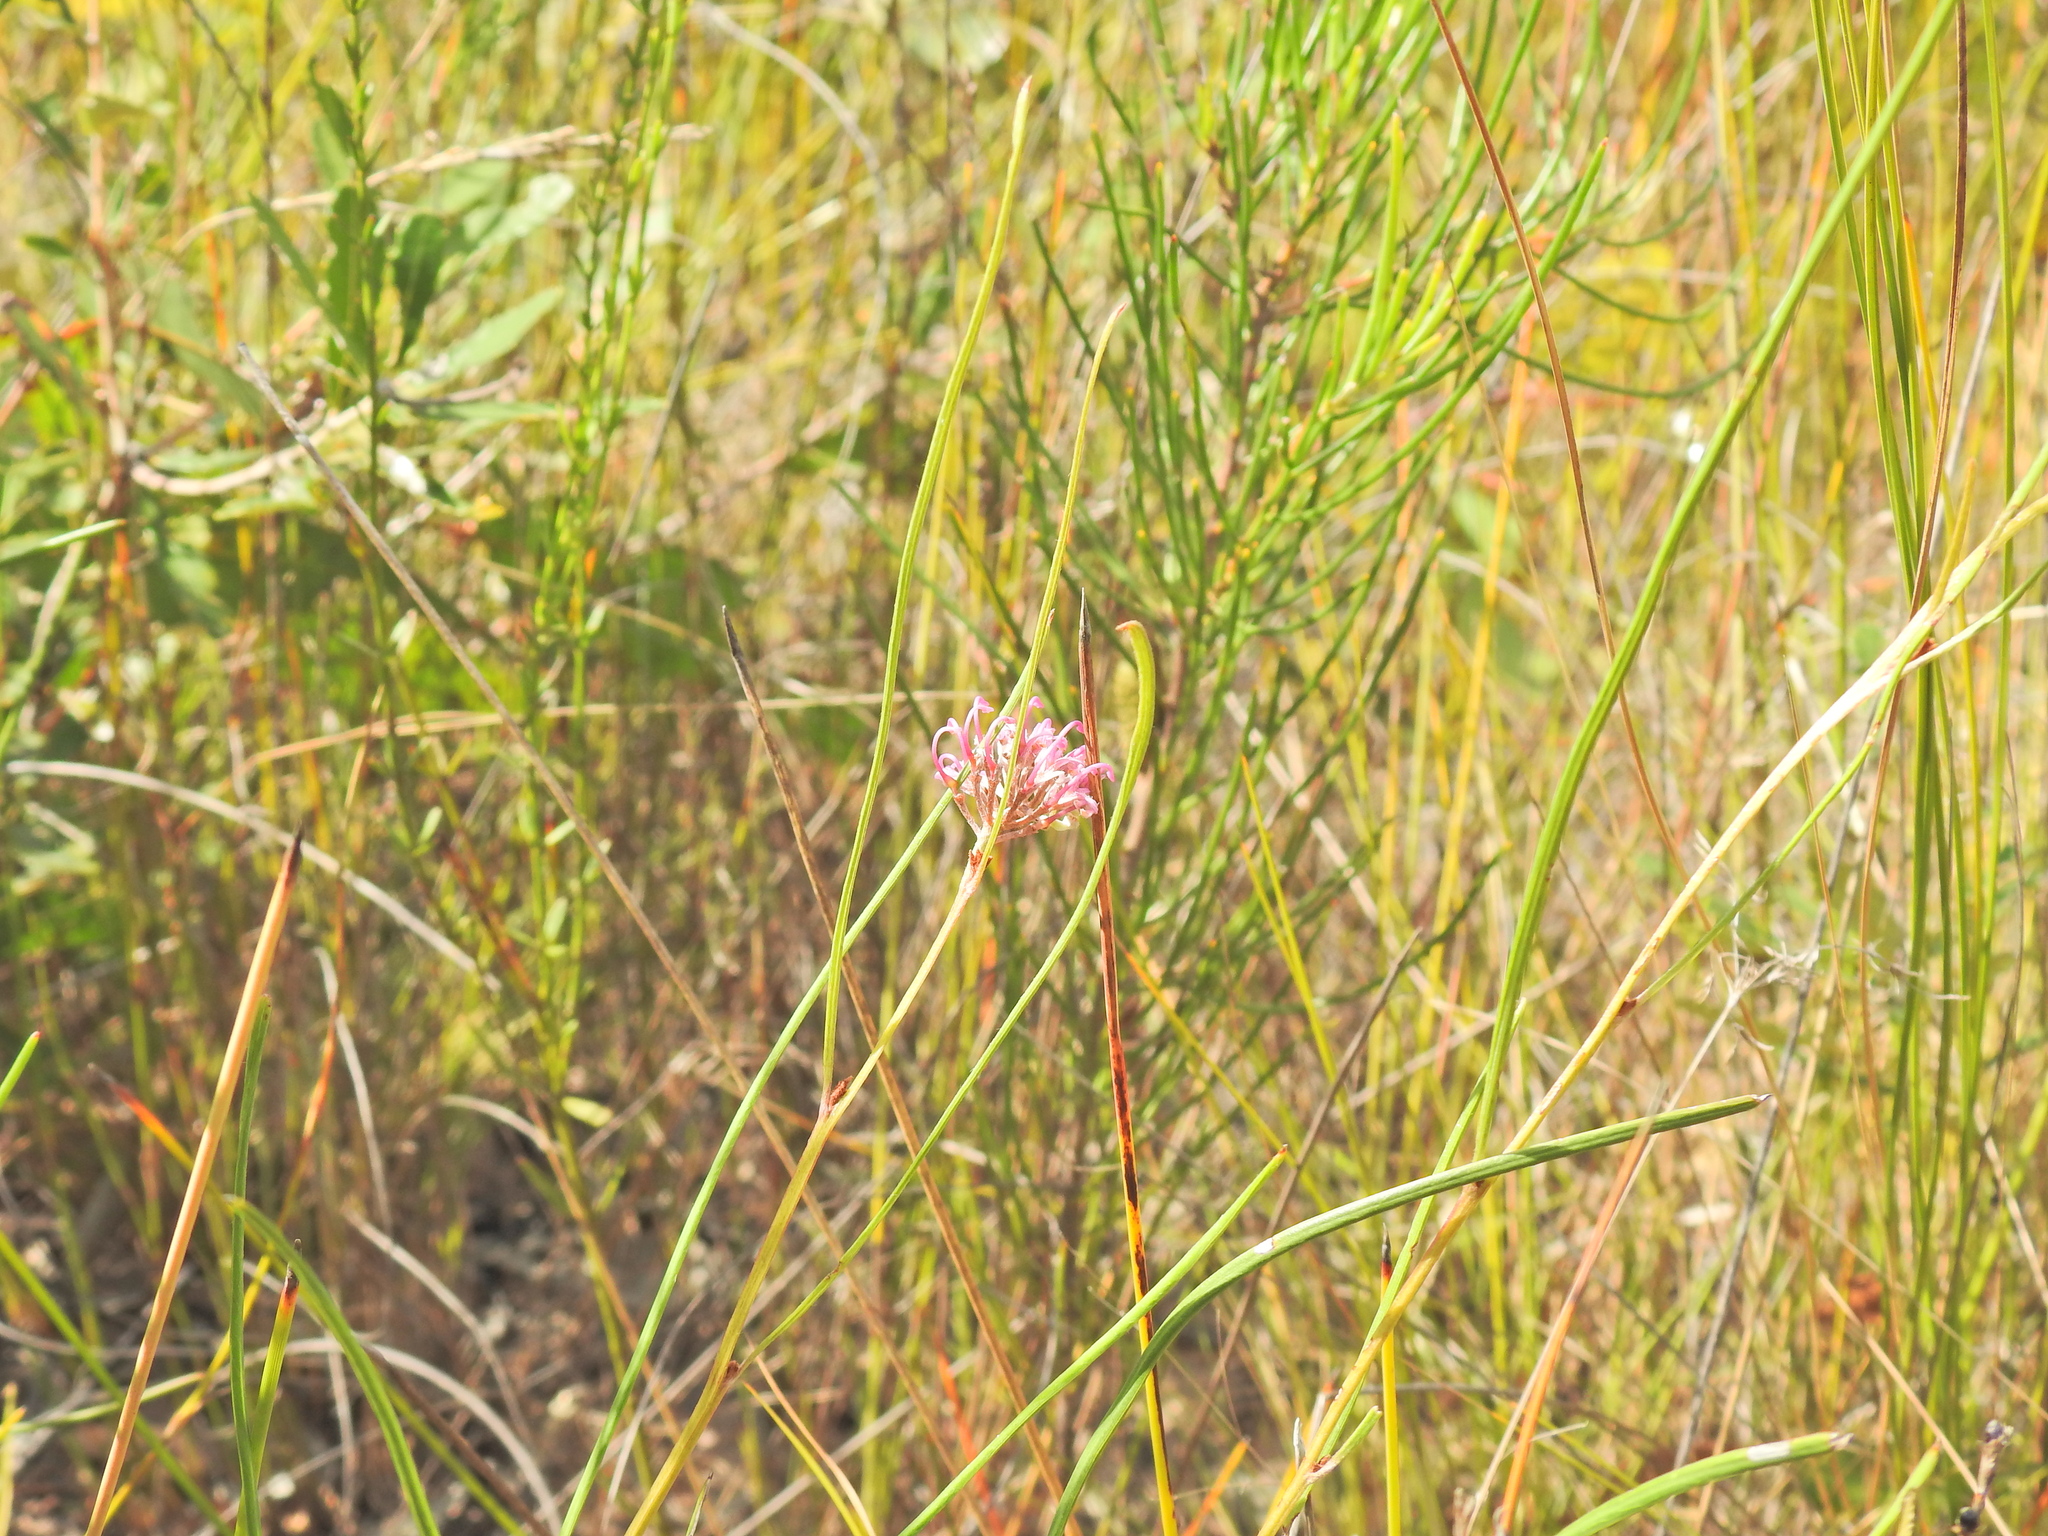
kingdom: Plantae
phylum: Tracheophyta
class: Magnoliopsida
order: Proteales
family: Proteaceae
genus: Grevillea
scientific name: Grevillea reptans
